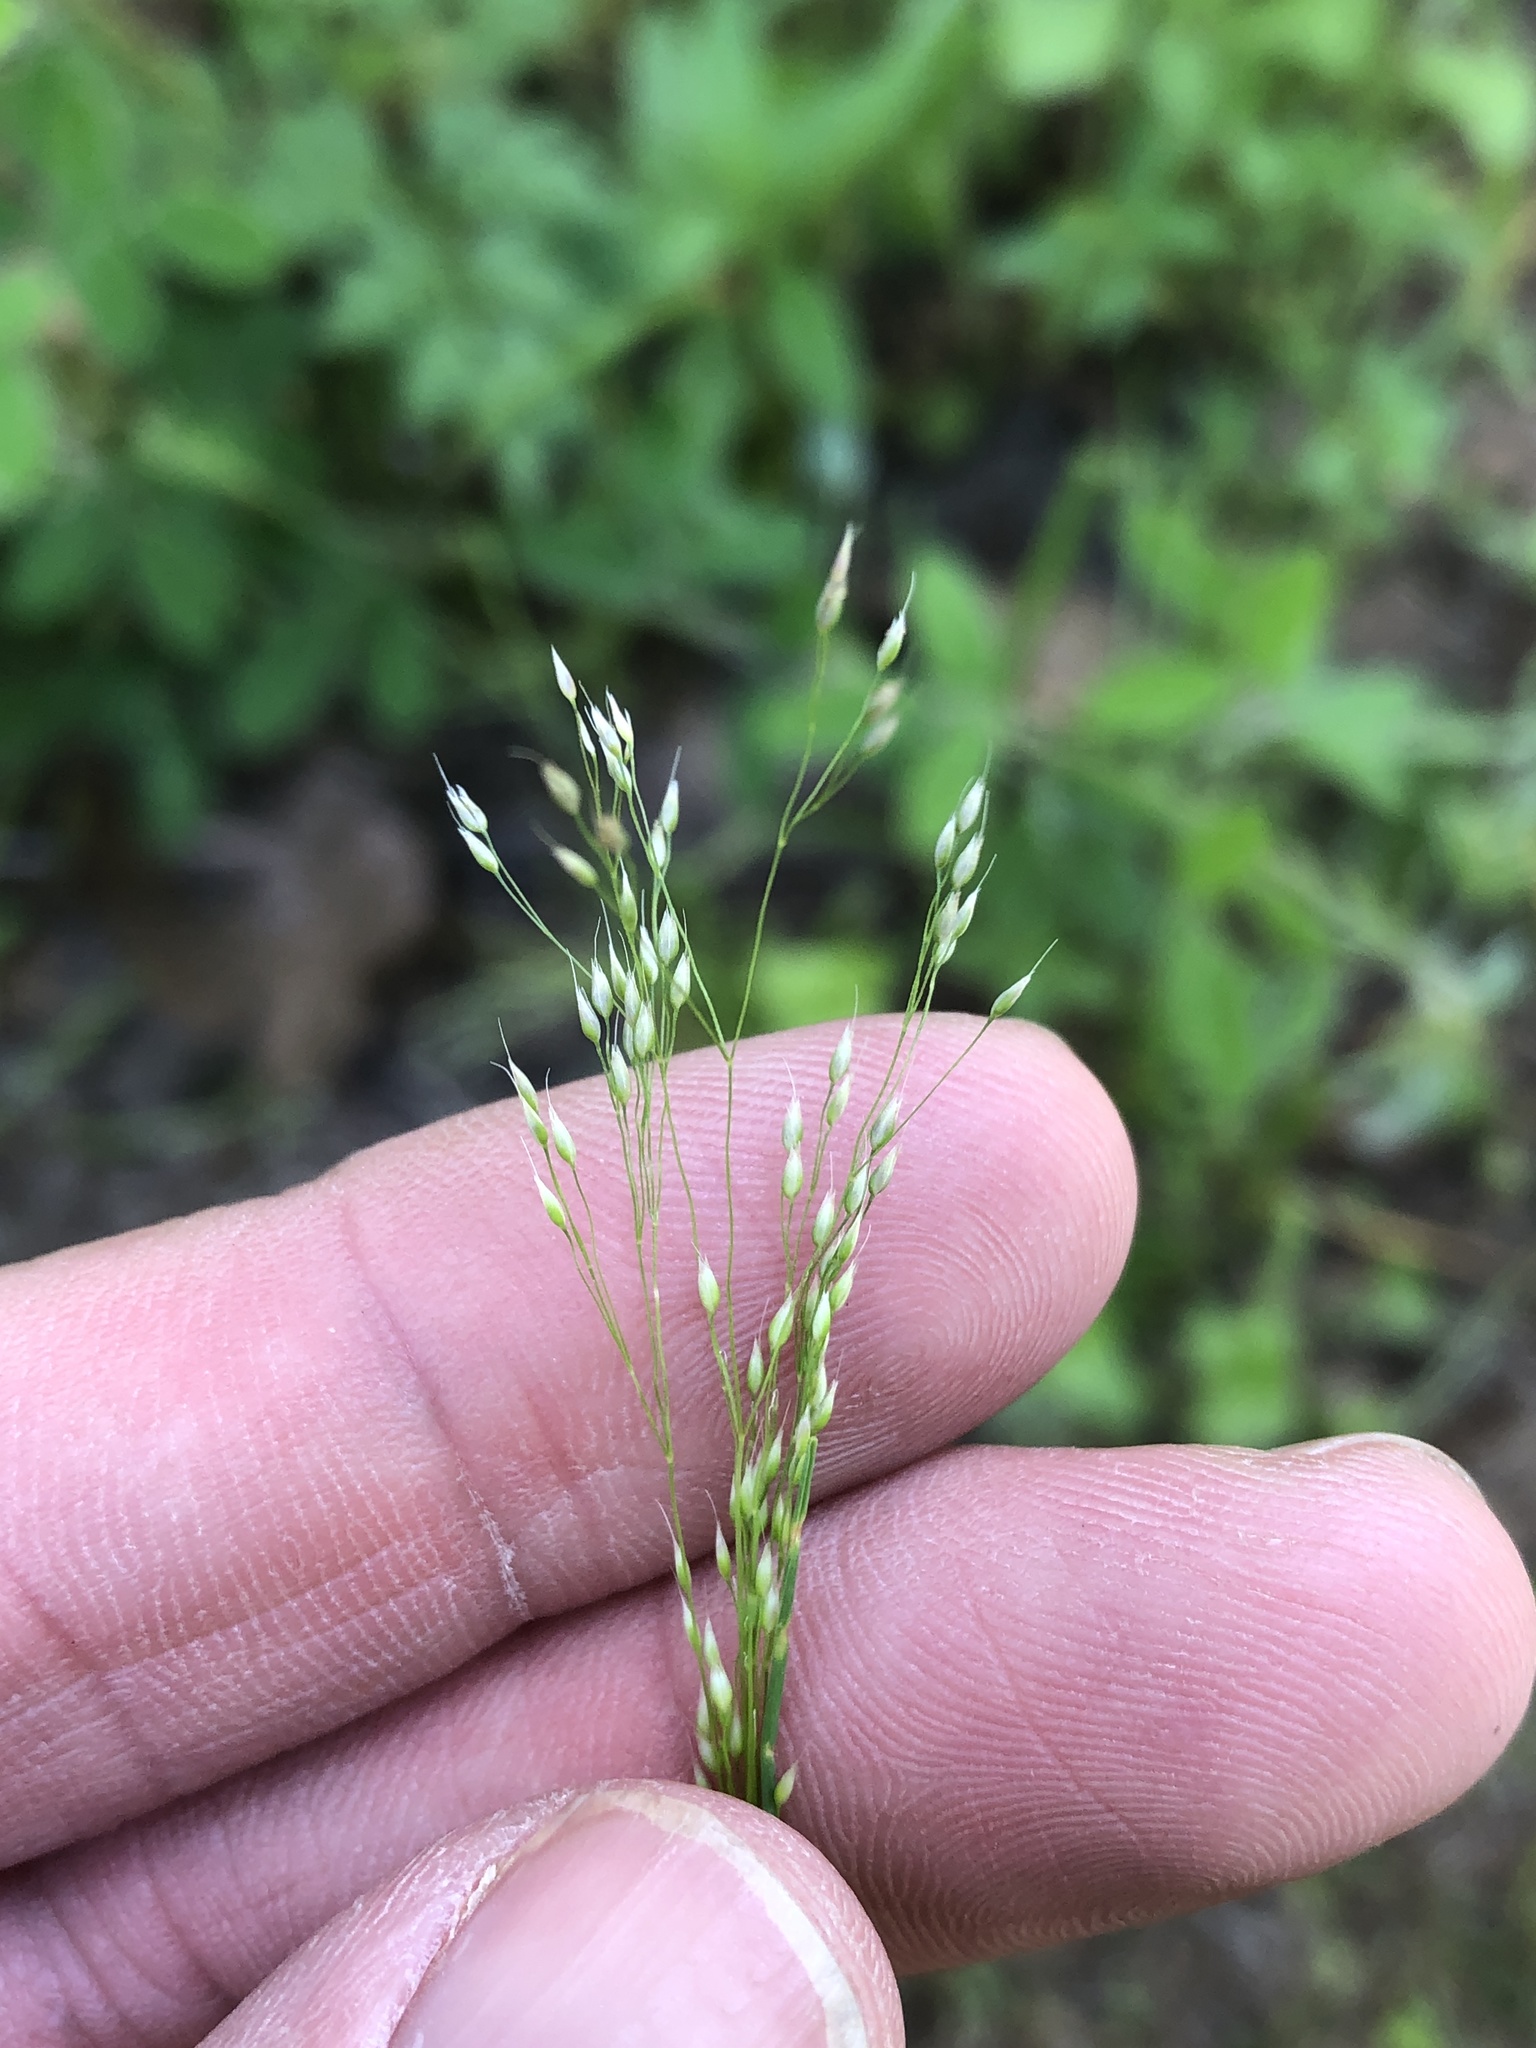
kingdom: Plantae
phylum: Tracheophyta
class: Liliopsida
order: Poales
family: Poaceae
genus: Aira
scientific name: Aira caryophyllea
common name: Silver hairgrass
